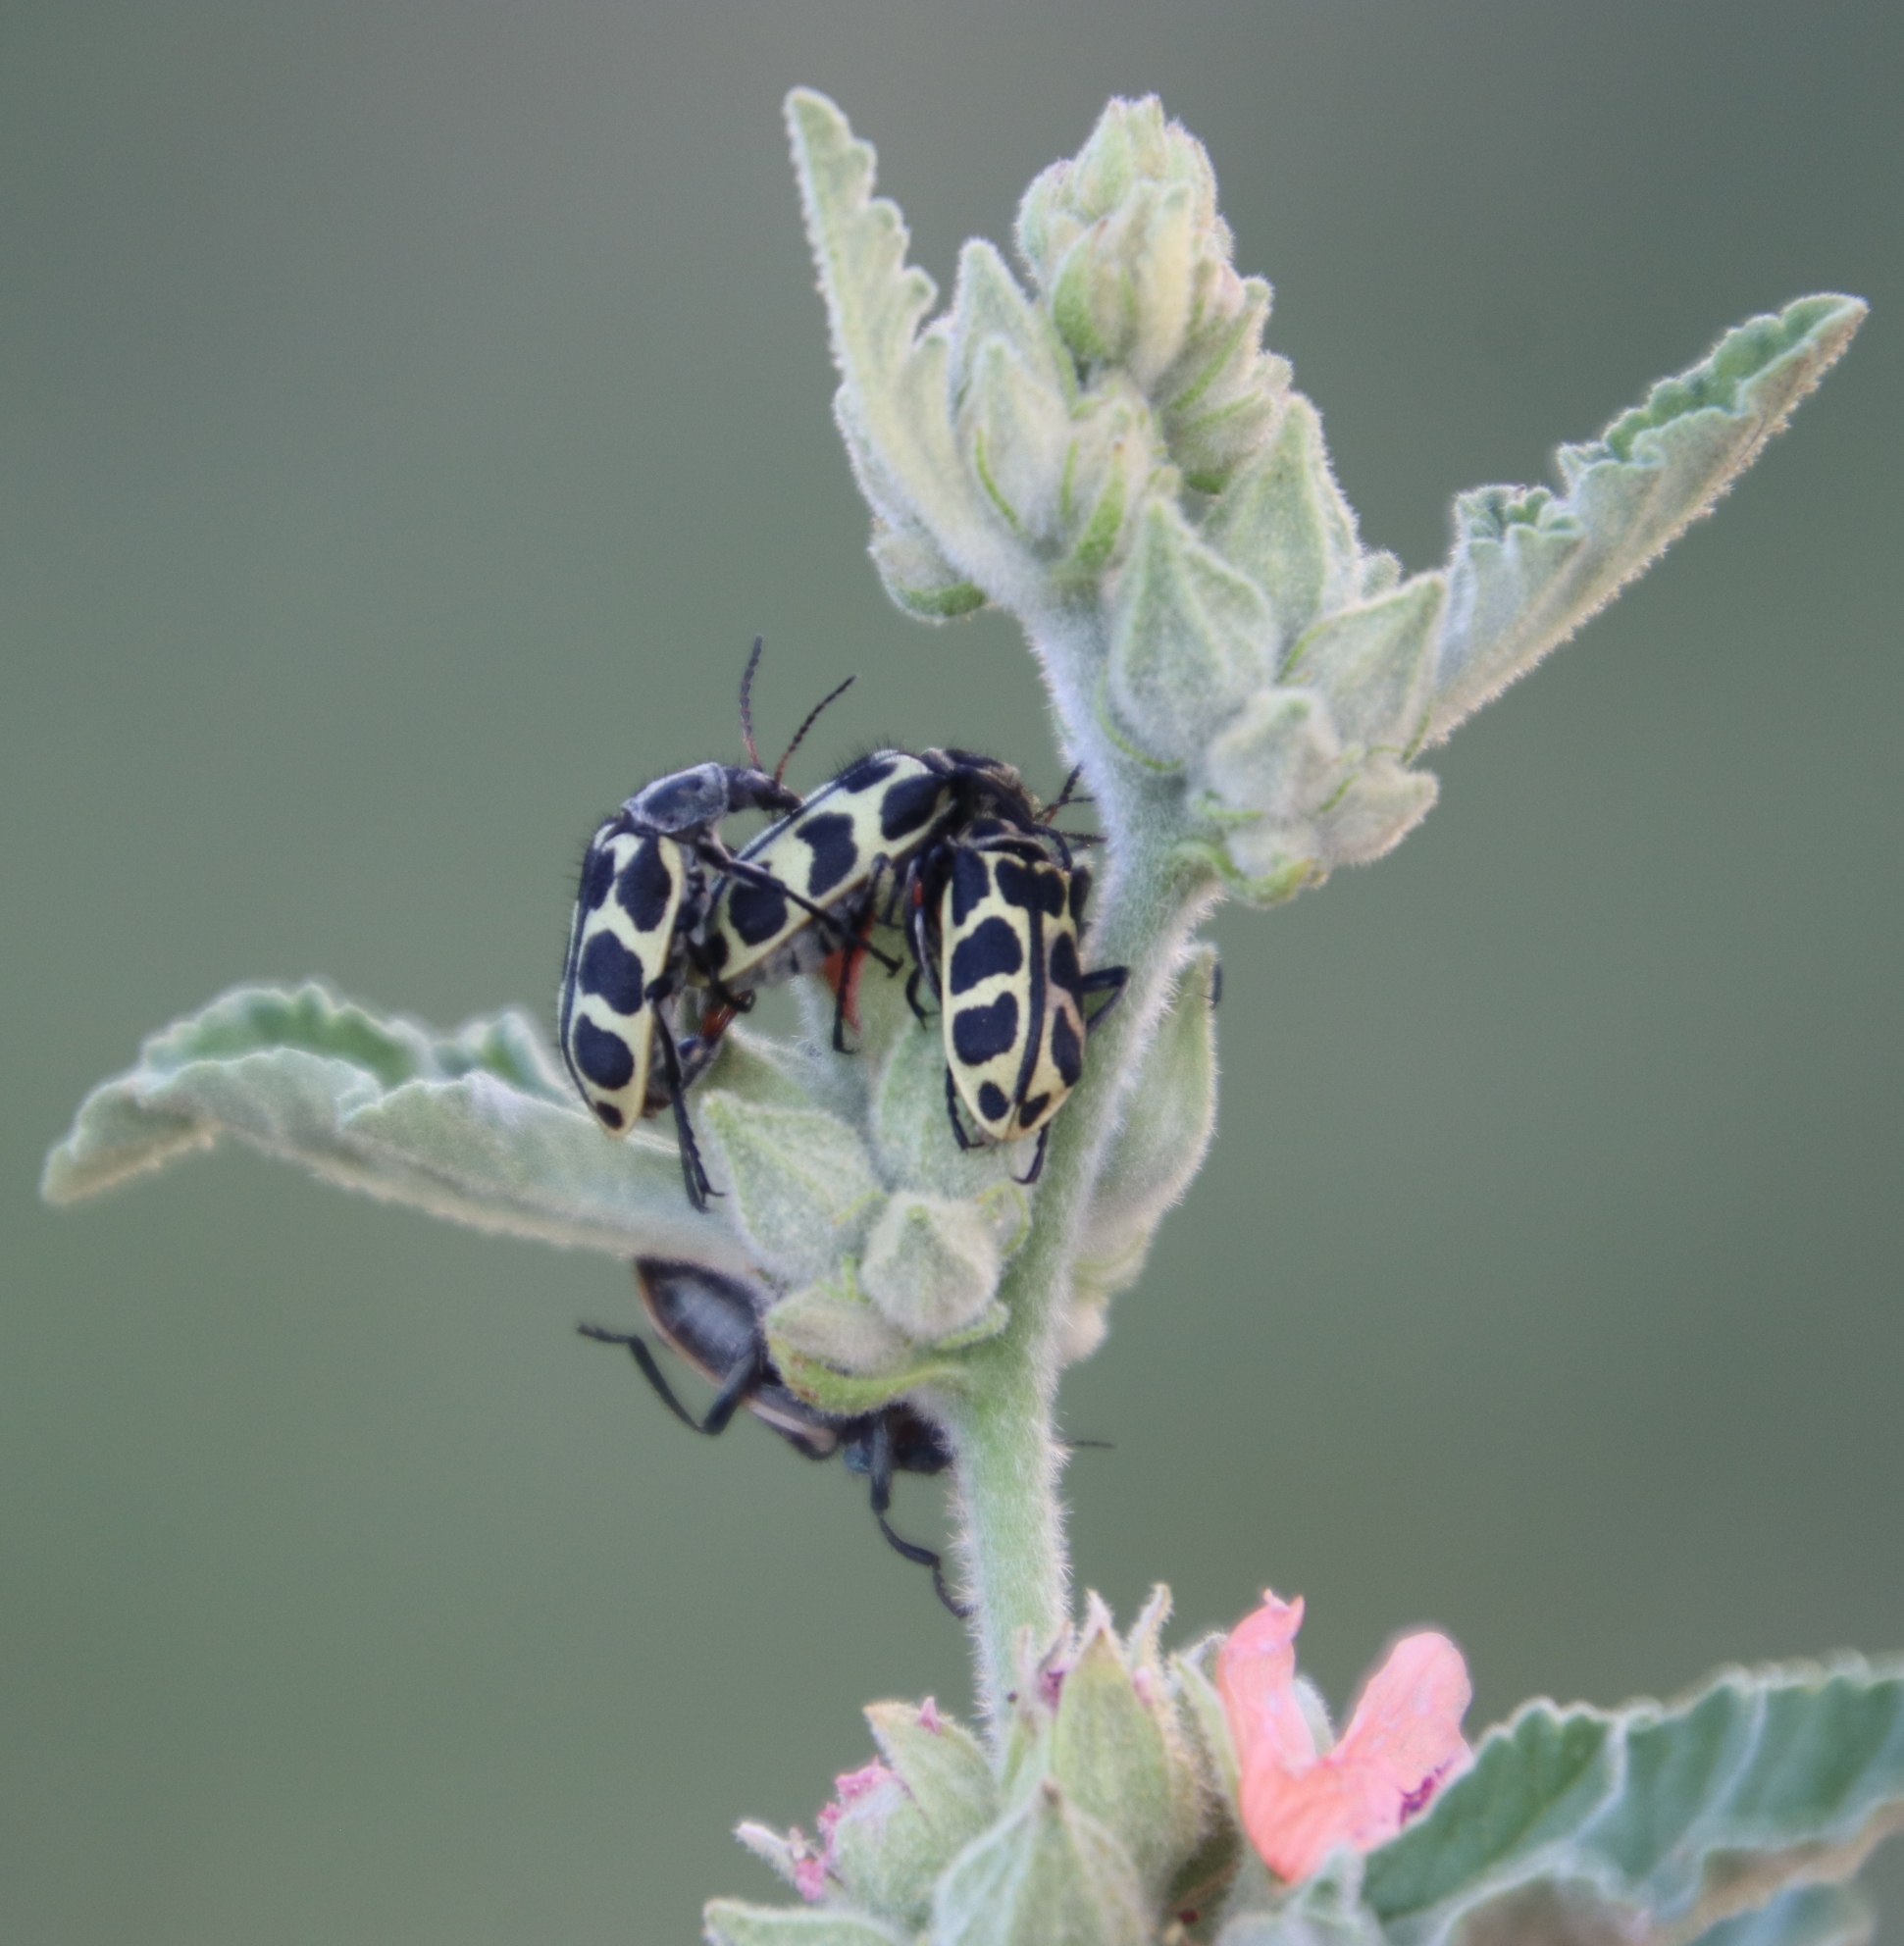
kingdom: Plantae
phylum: Tracheophyta
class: Magnoliopsida
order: Malvales
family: Malvaceae
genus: Sphaeralcea
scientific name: Sphaeralcea bonariensis
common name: Latin globemallow
